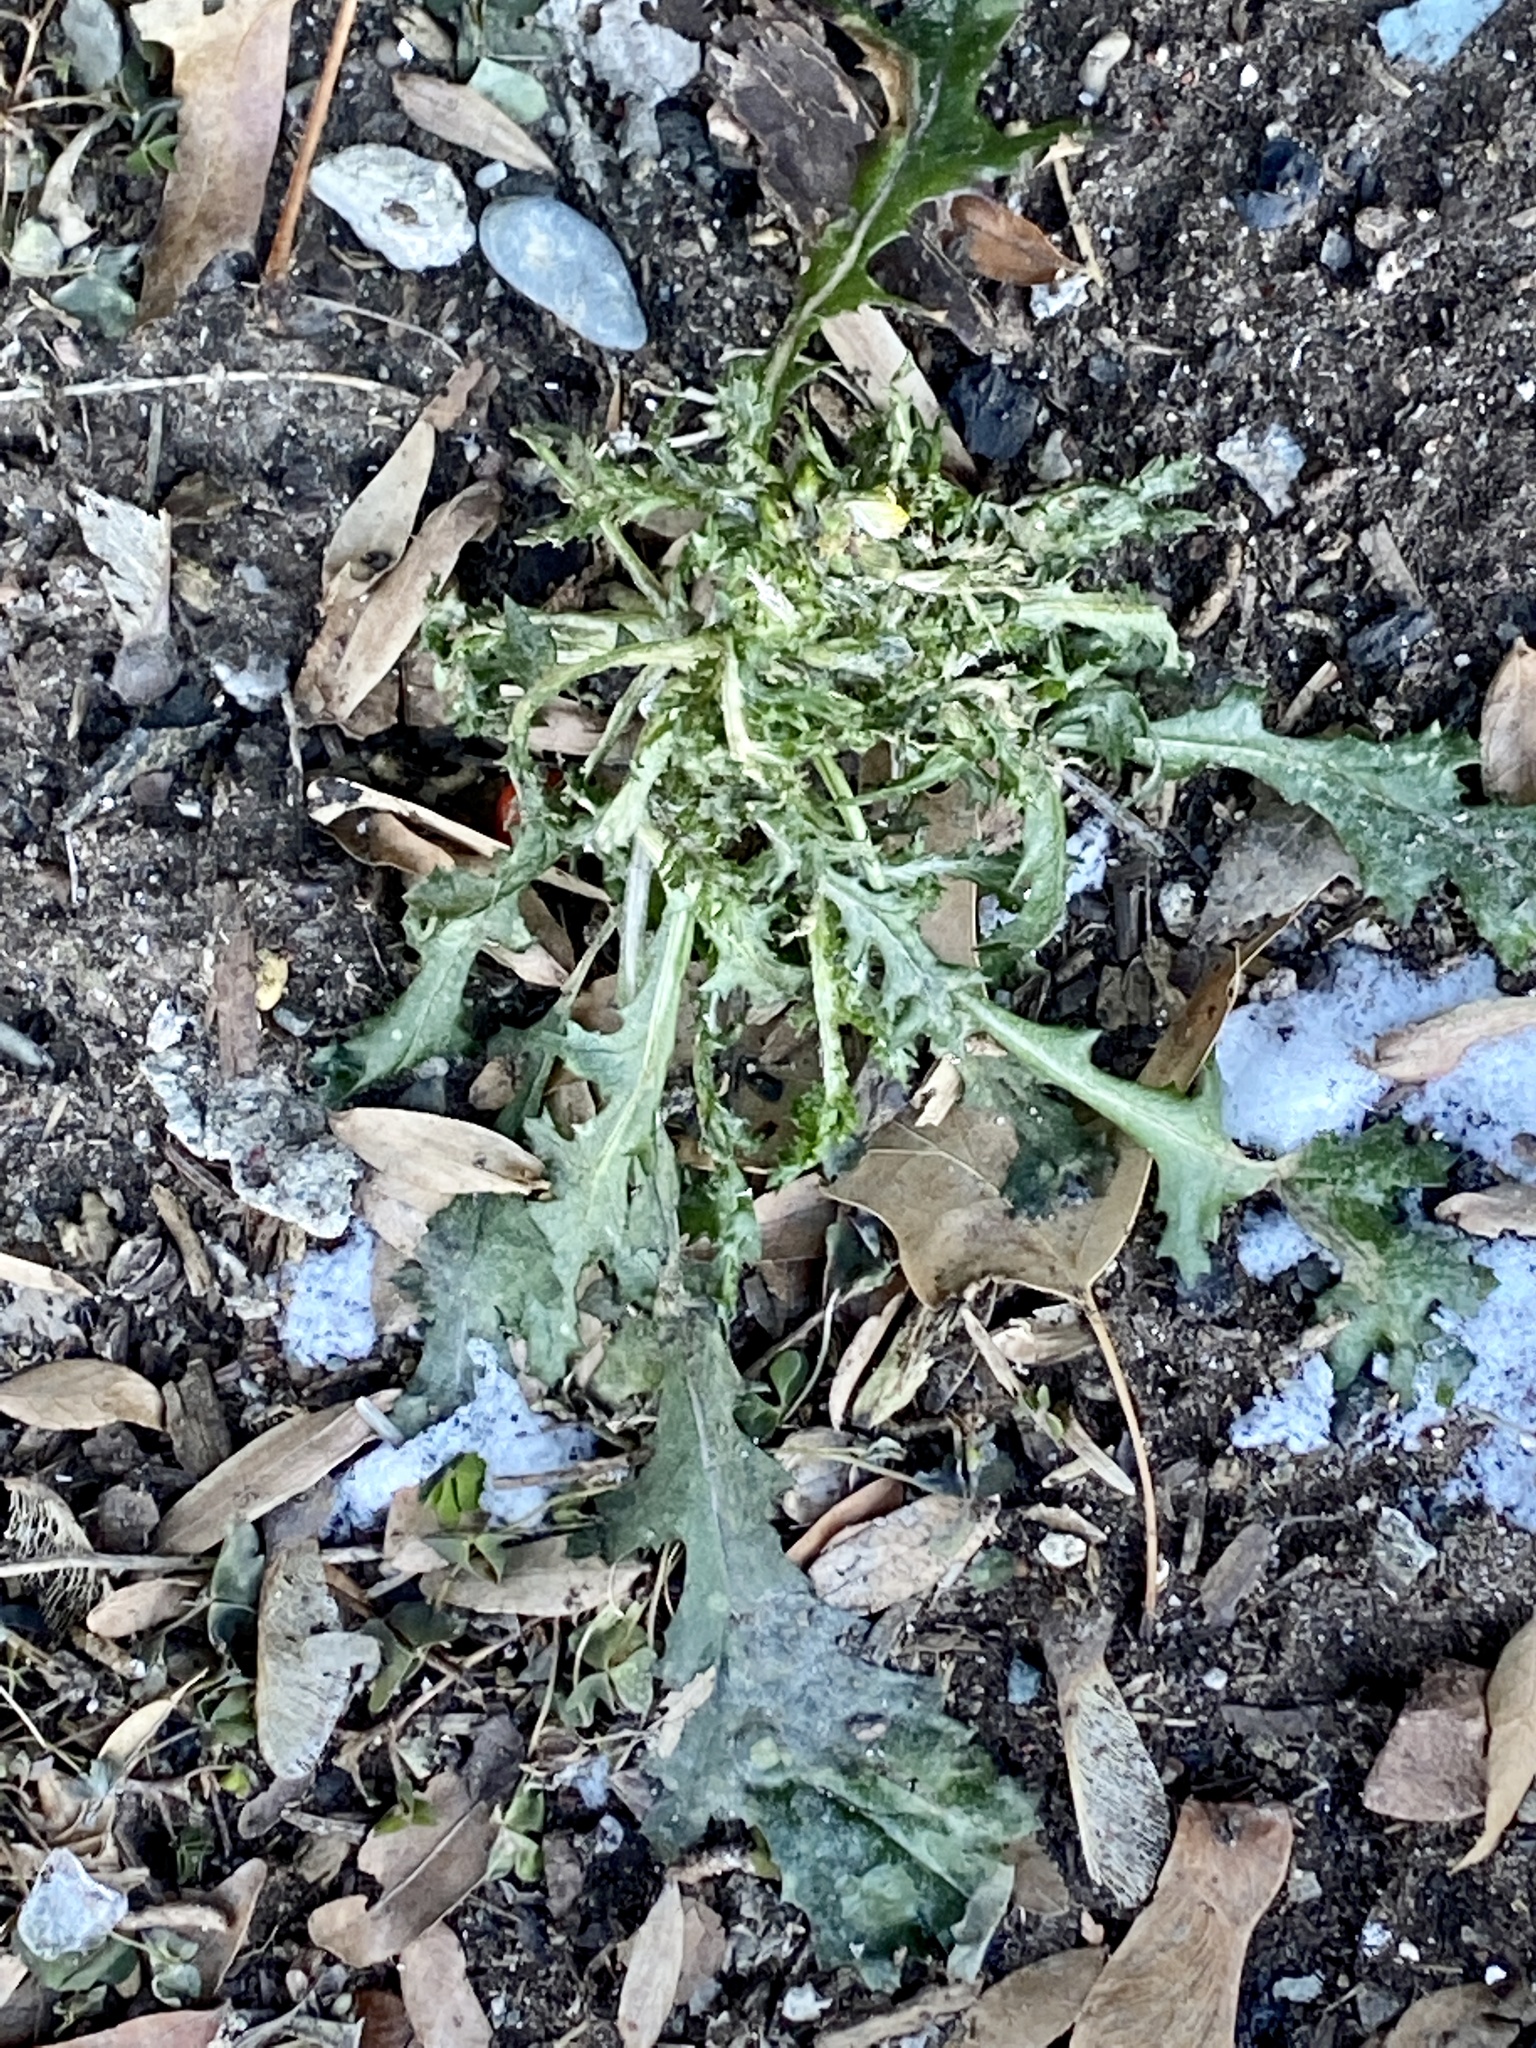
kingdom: Plantae
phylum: Tracheophyta
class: Magnoliopsida
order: Asterales
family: Asteraceae
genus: Senecio
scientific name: Senecio vulgaris
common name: Old-man-in-the-spring
